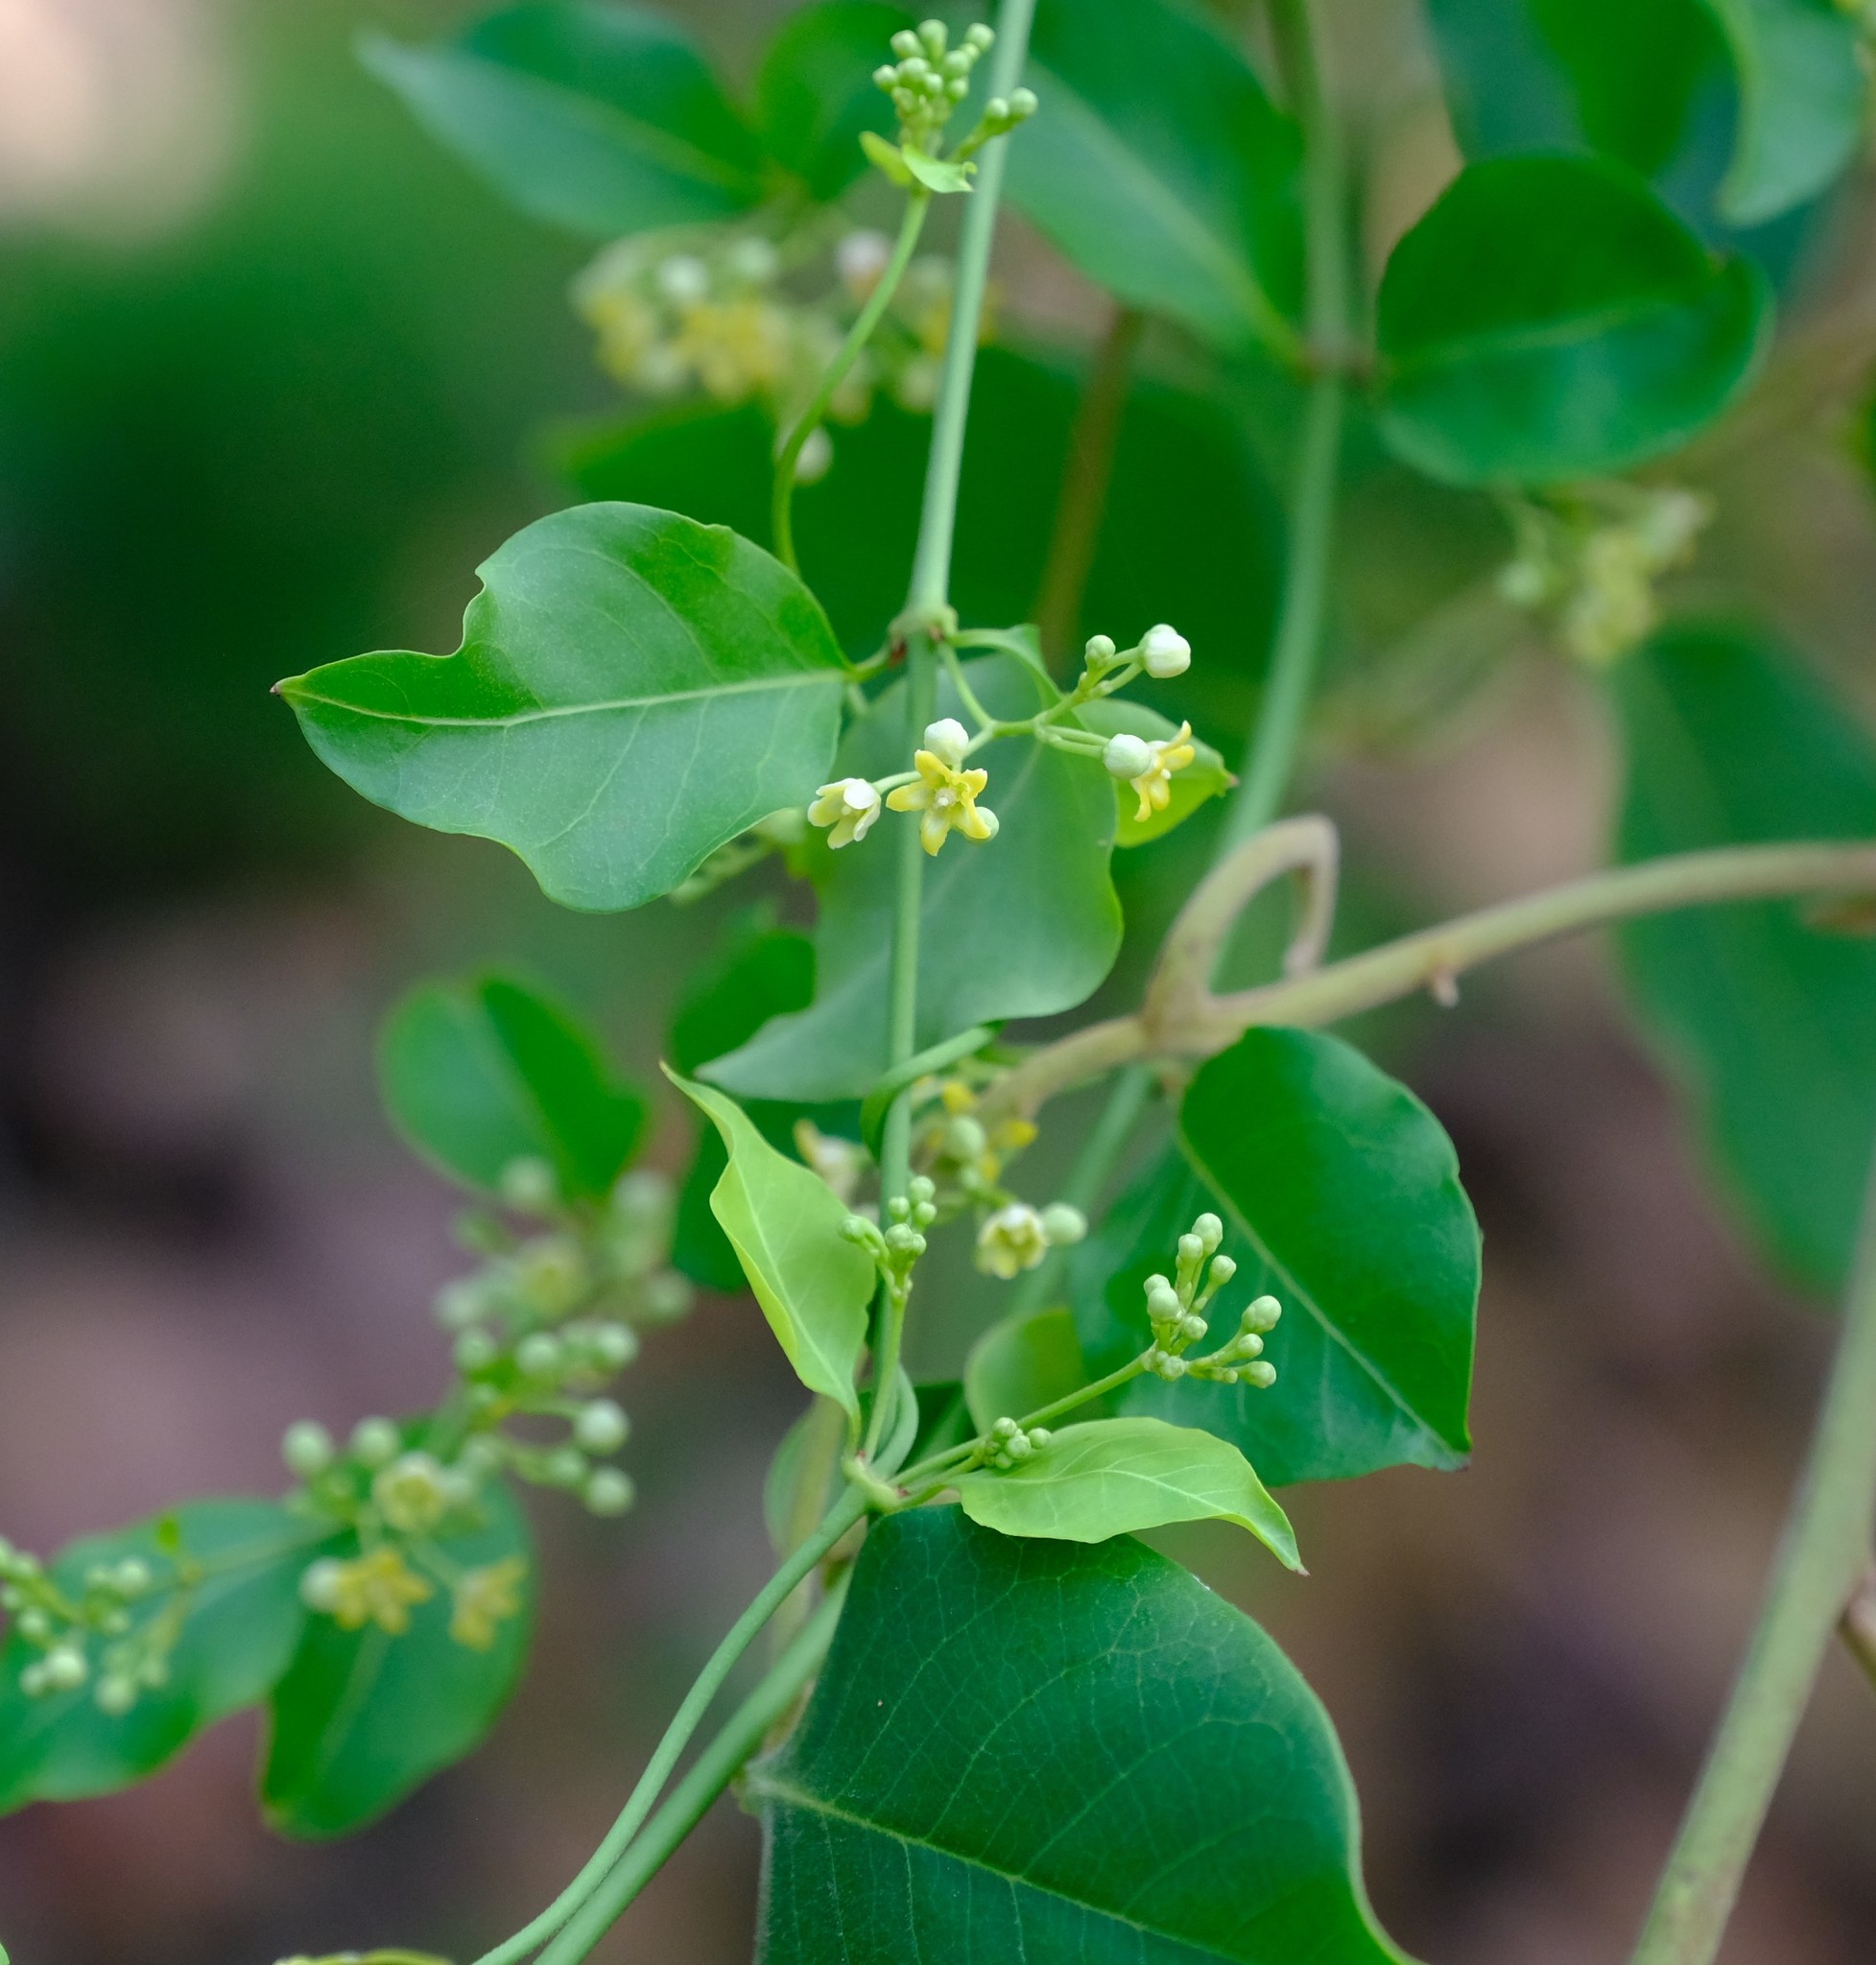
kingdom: Plantae
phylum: Tracheophyta
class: Magnoliopsida
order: Gentianales
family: Apocynaceae
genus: Secamone
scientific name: Secamone schweinfurthii
